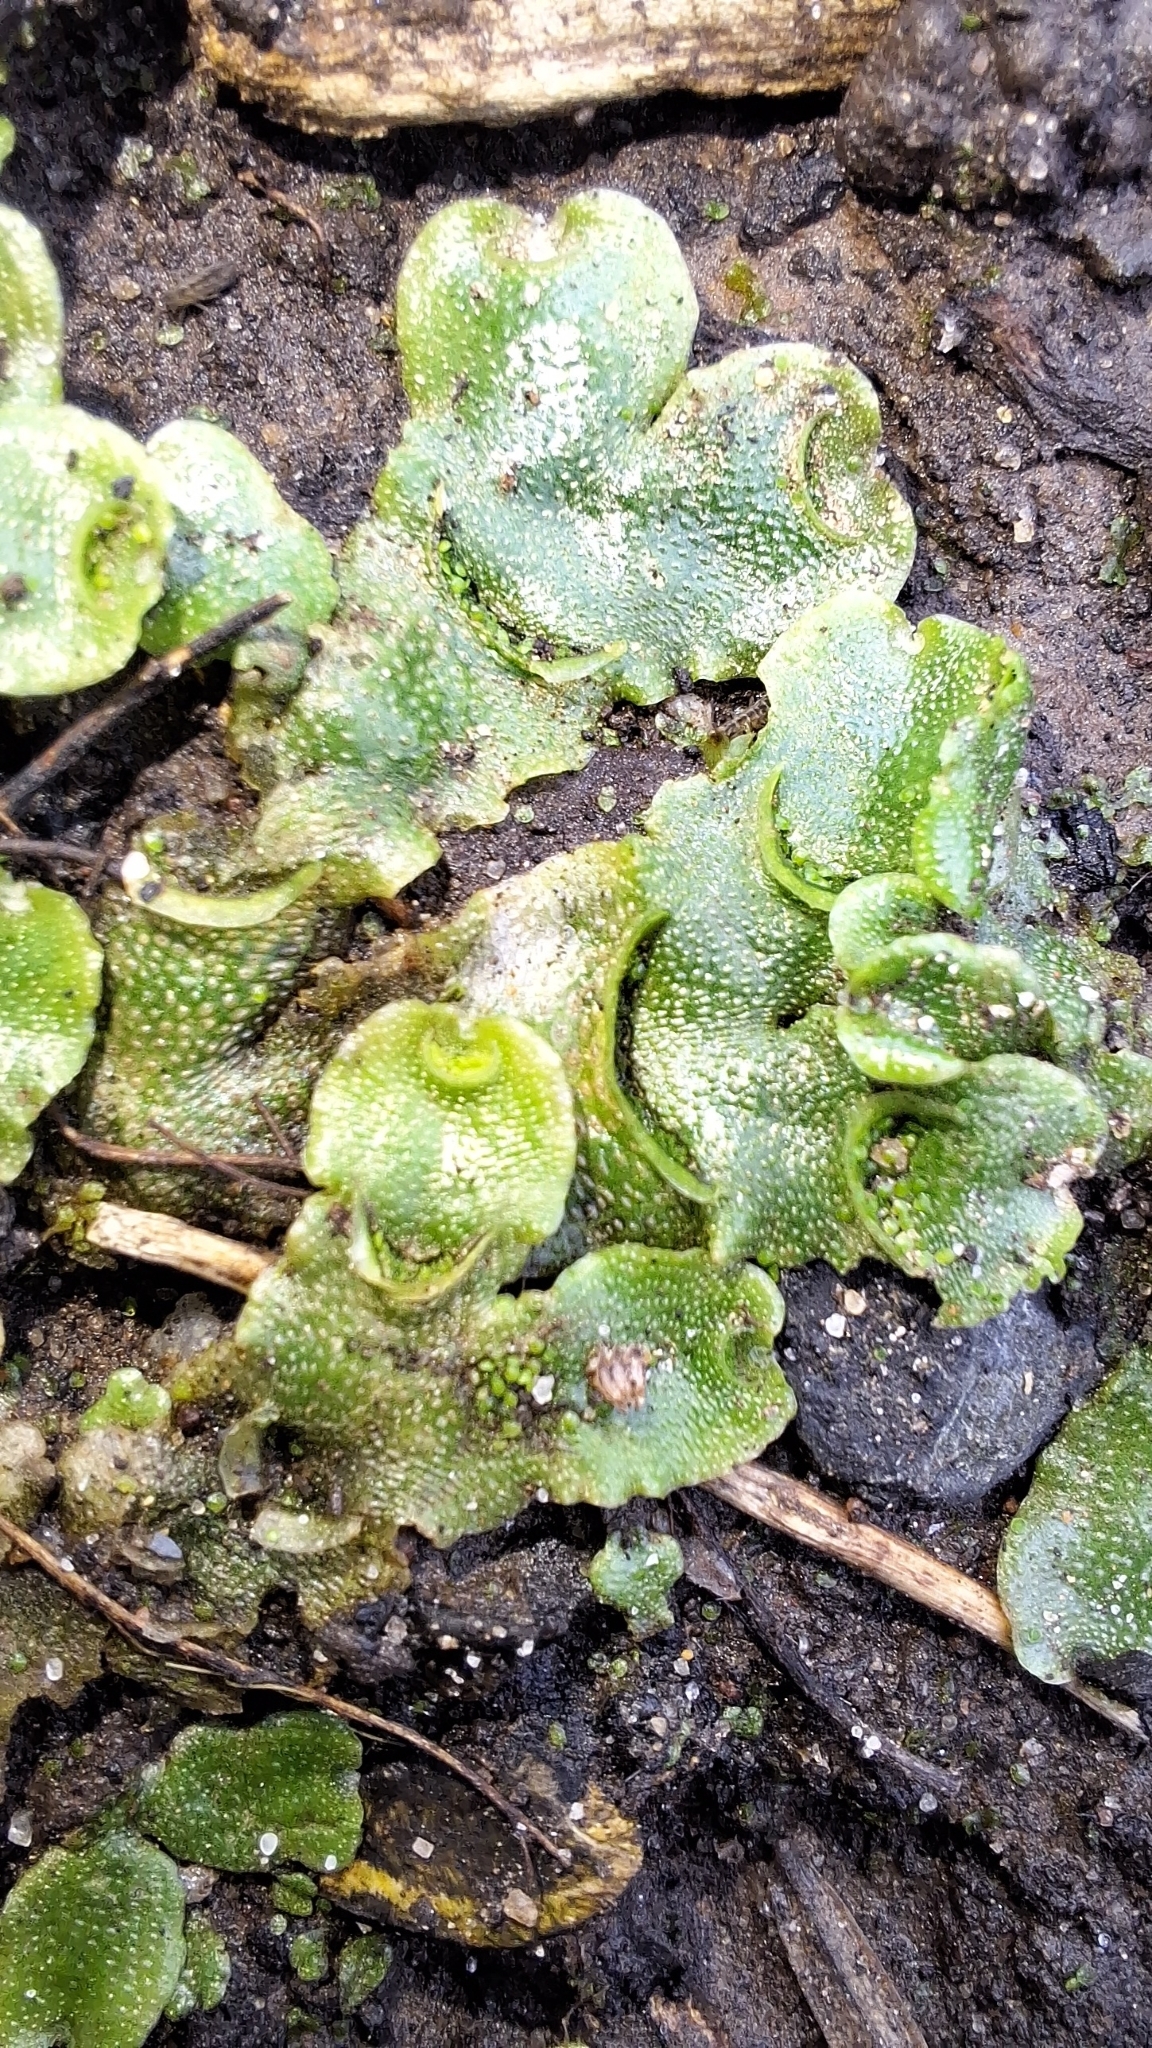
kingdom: Plantae
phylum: Marchantiophyta
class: Marchantiopsida
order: Lunulariales
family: Lunulariaceae
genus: Lunularia
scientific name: Lunularia cruciata
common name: Crescent-cup liverwort
